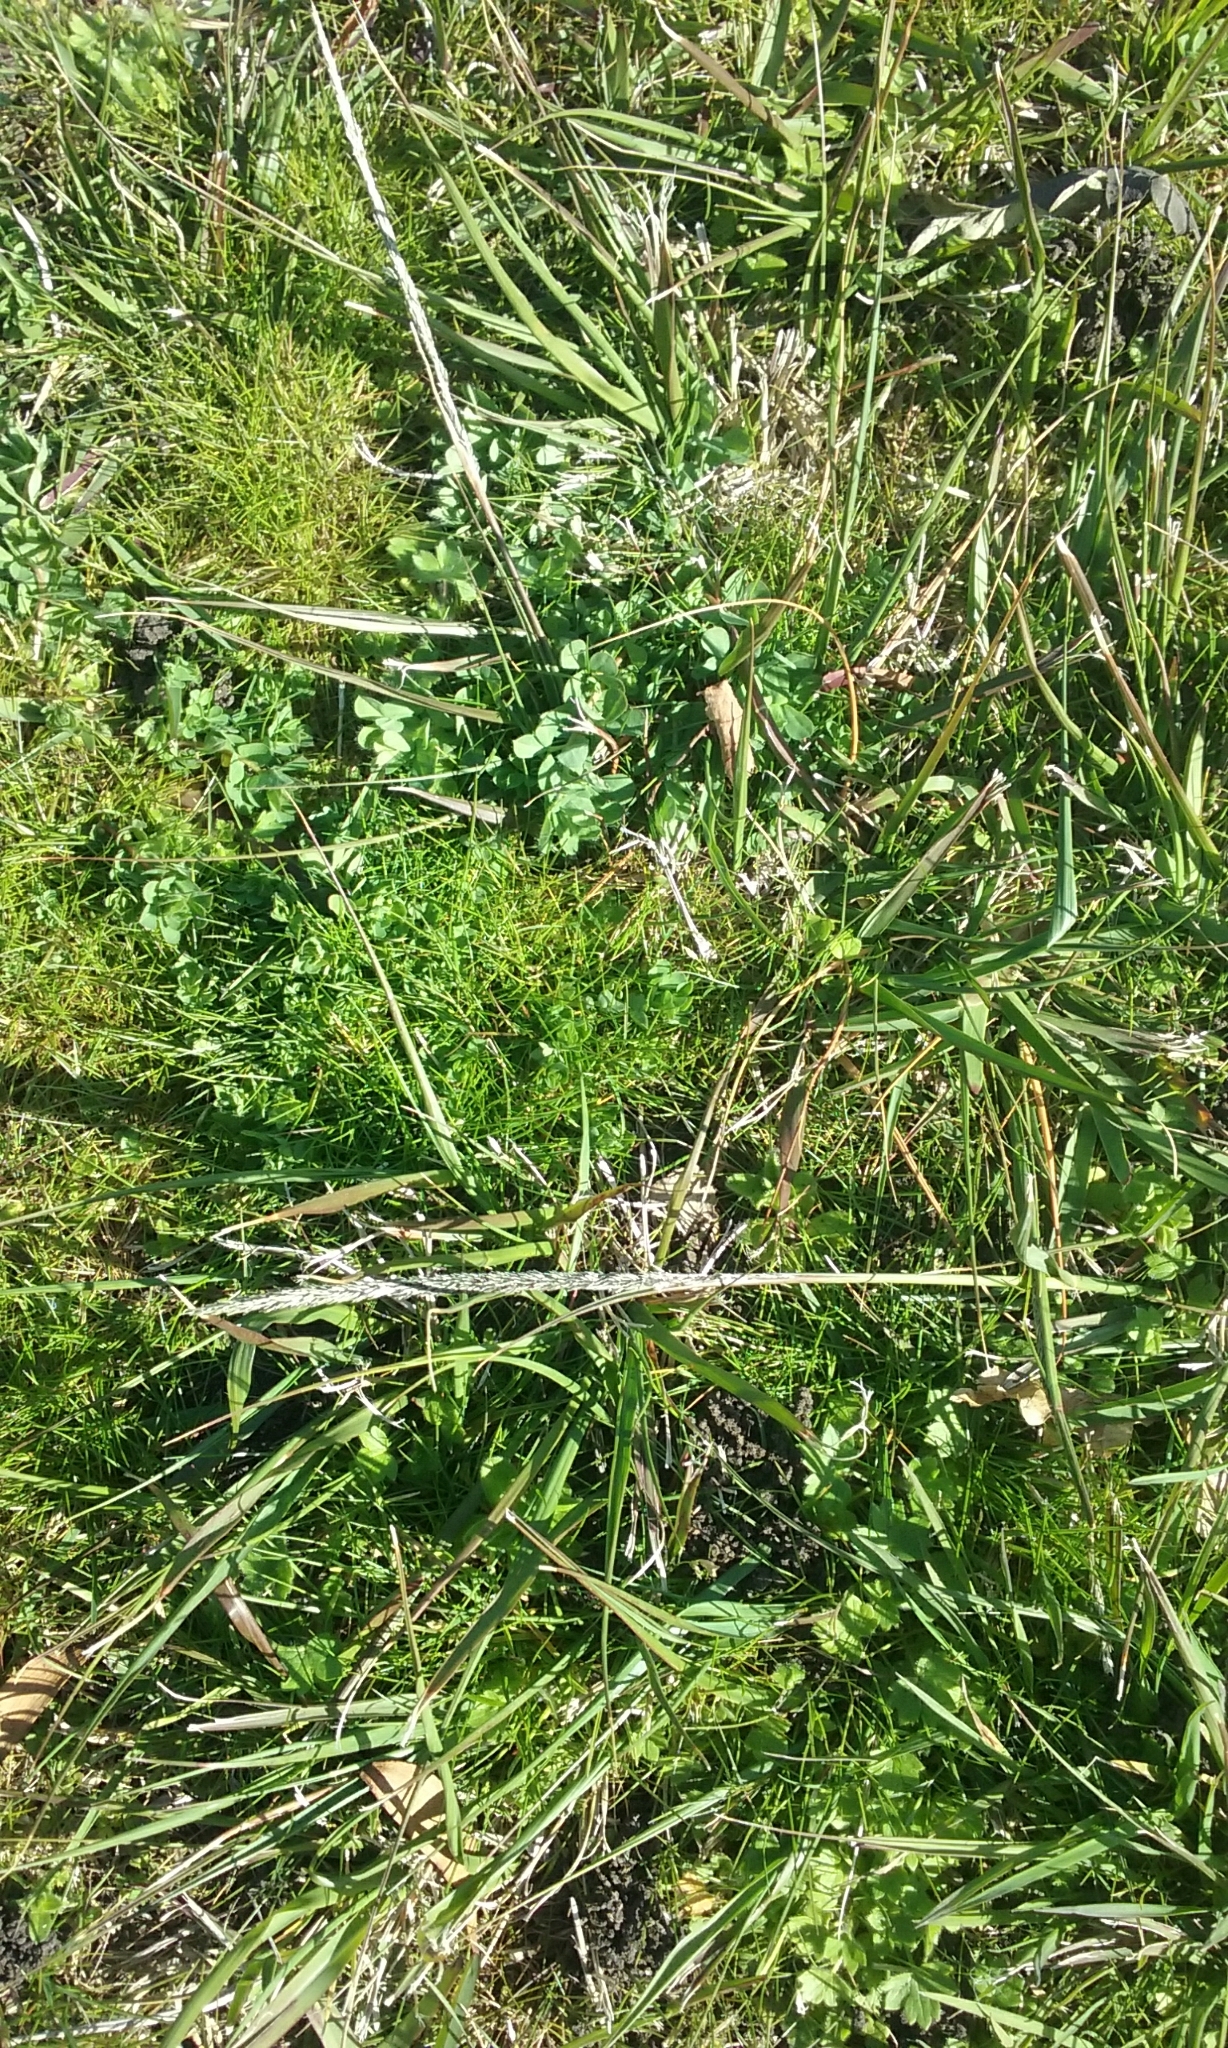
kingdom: Plantae
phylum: Tracheophyta
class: Liliopsida
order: Poales
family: Poaceae
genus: Sporobolus
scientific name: Sporobolus africanus
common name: African dropseed
